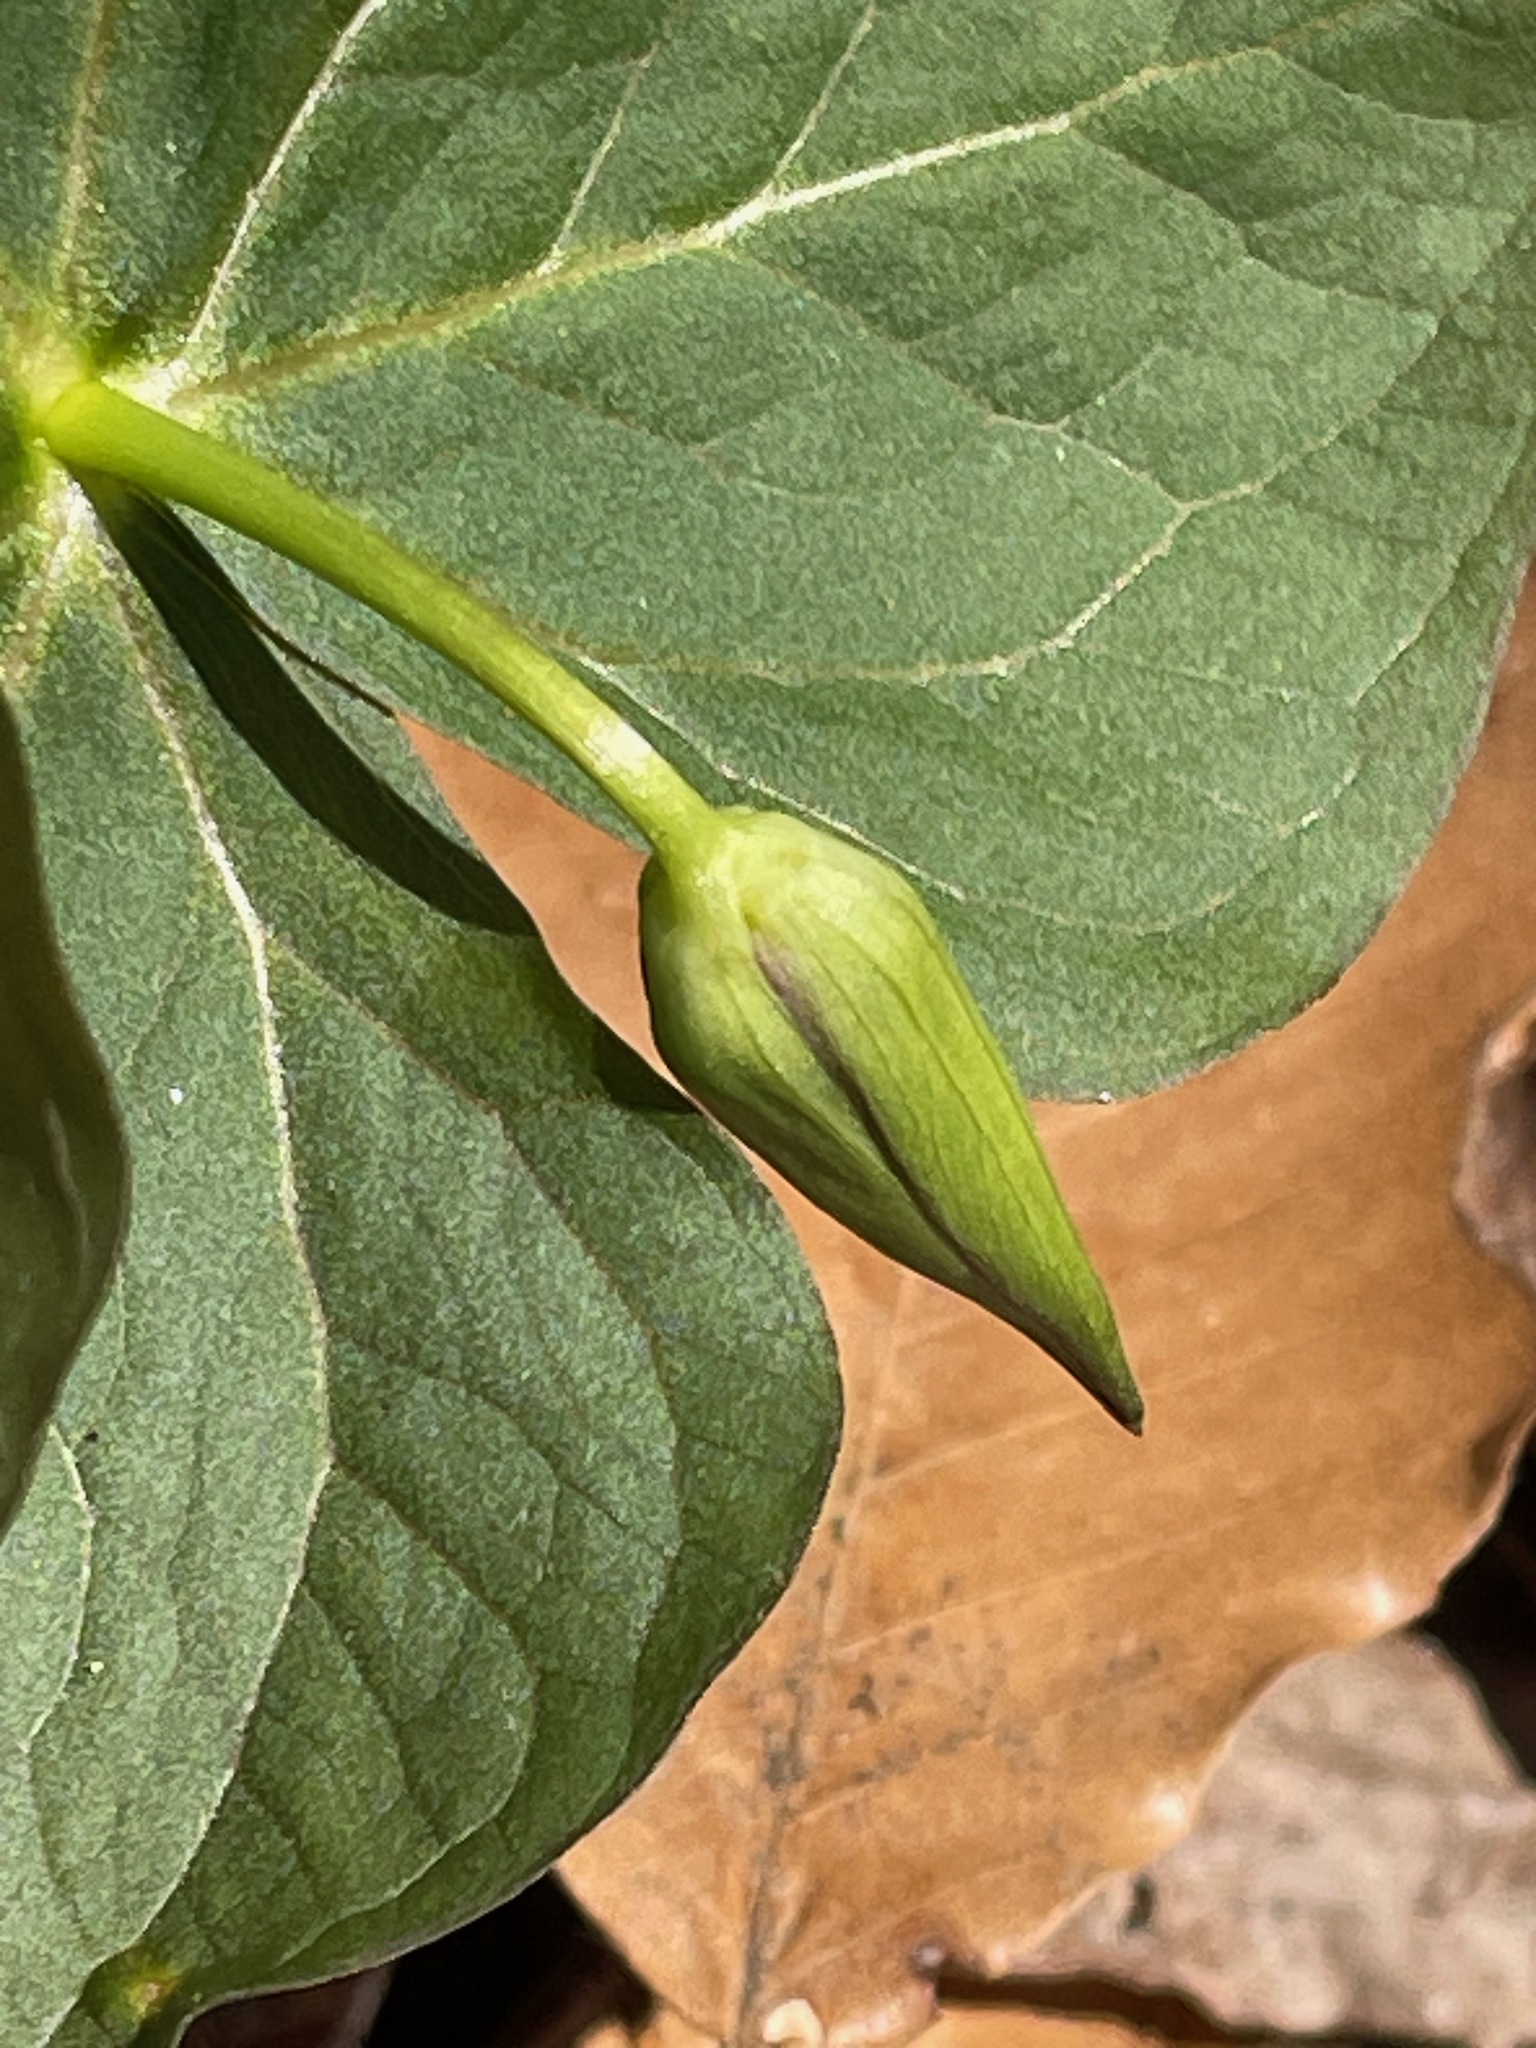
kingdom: Plantae
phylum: Tracheophyta
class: Liliopsida
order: Liliales
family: Melanthiaceae
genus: Trillium
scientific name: Trillium erectum
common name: Purple trillium
